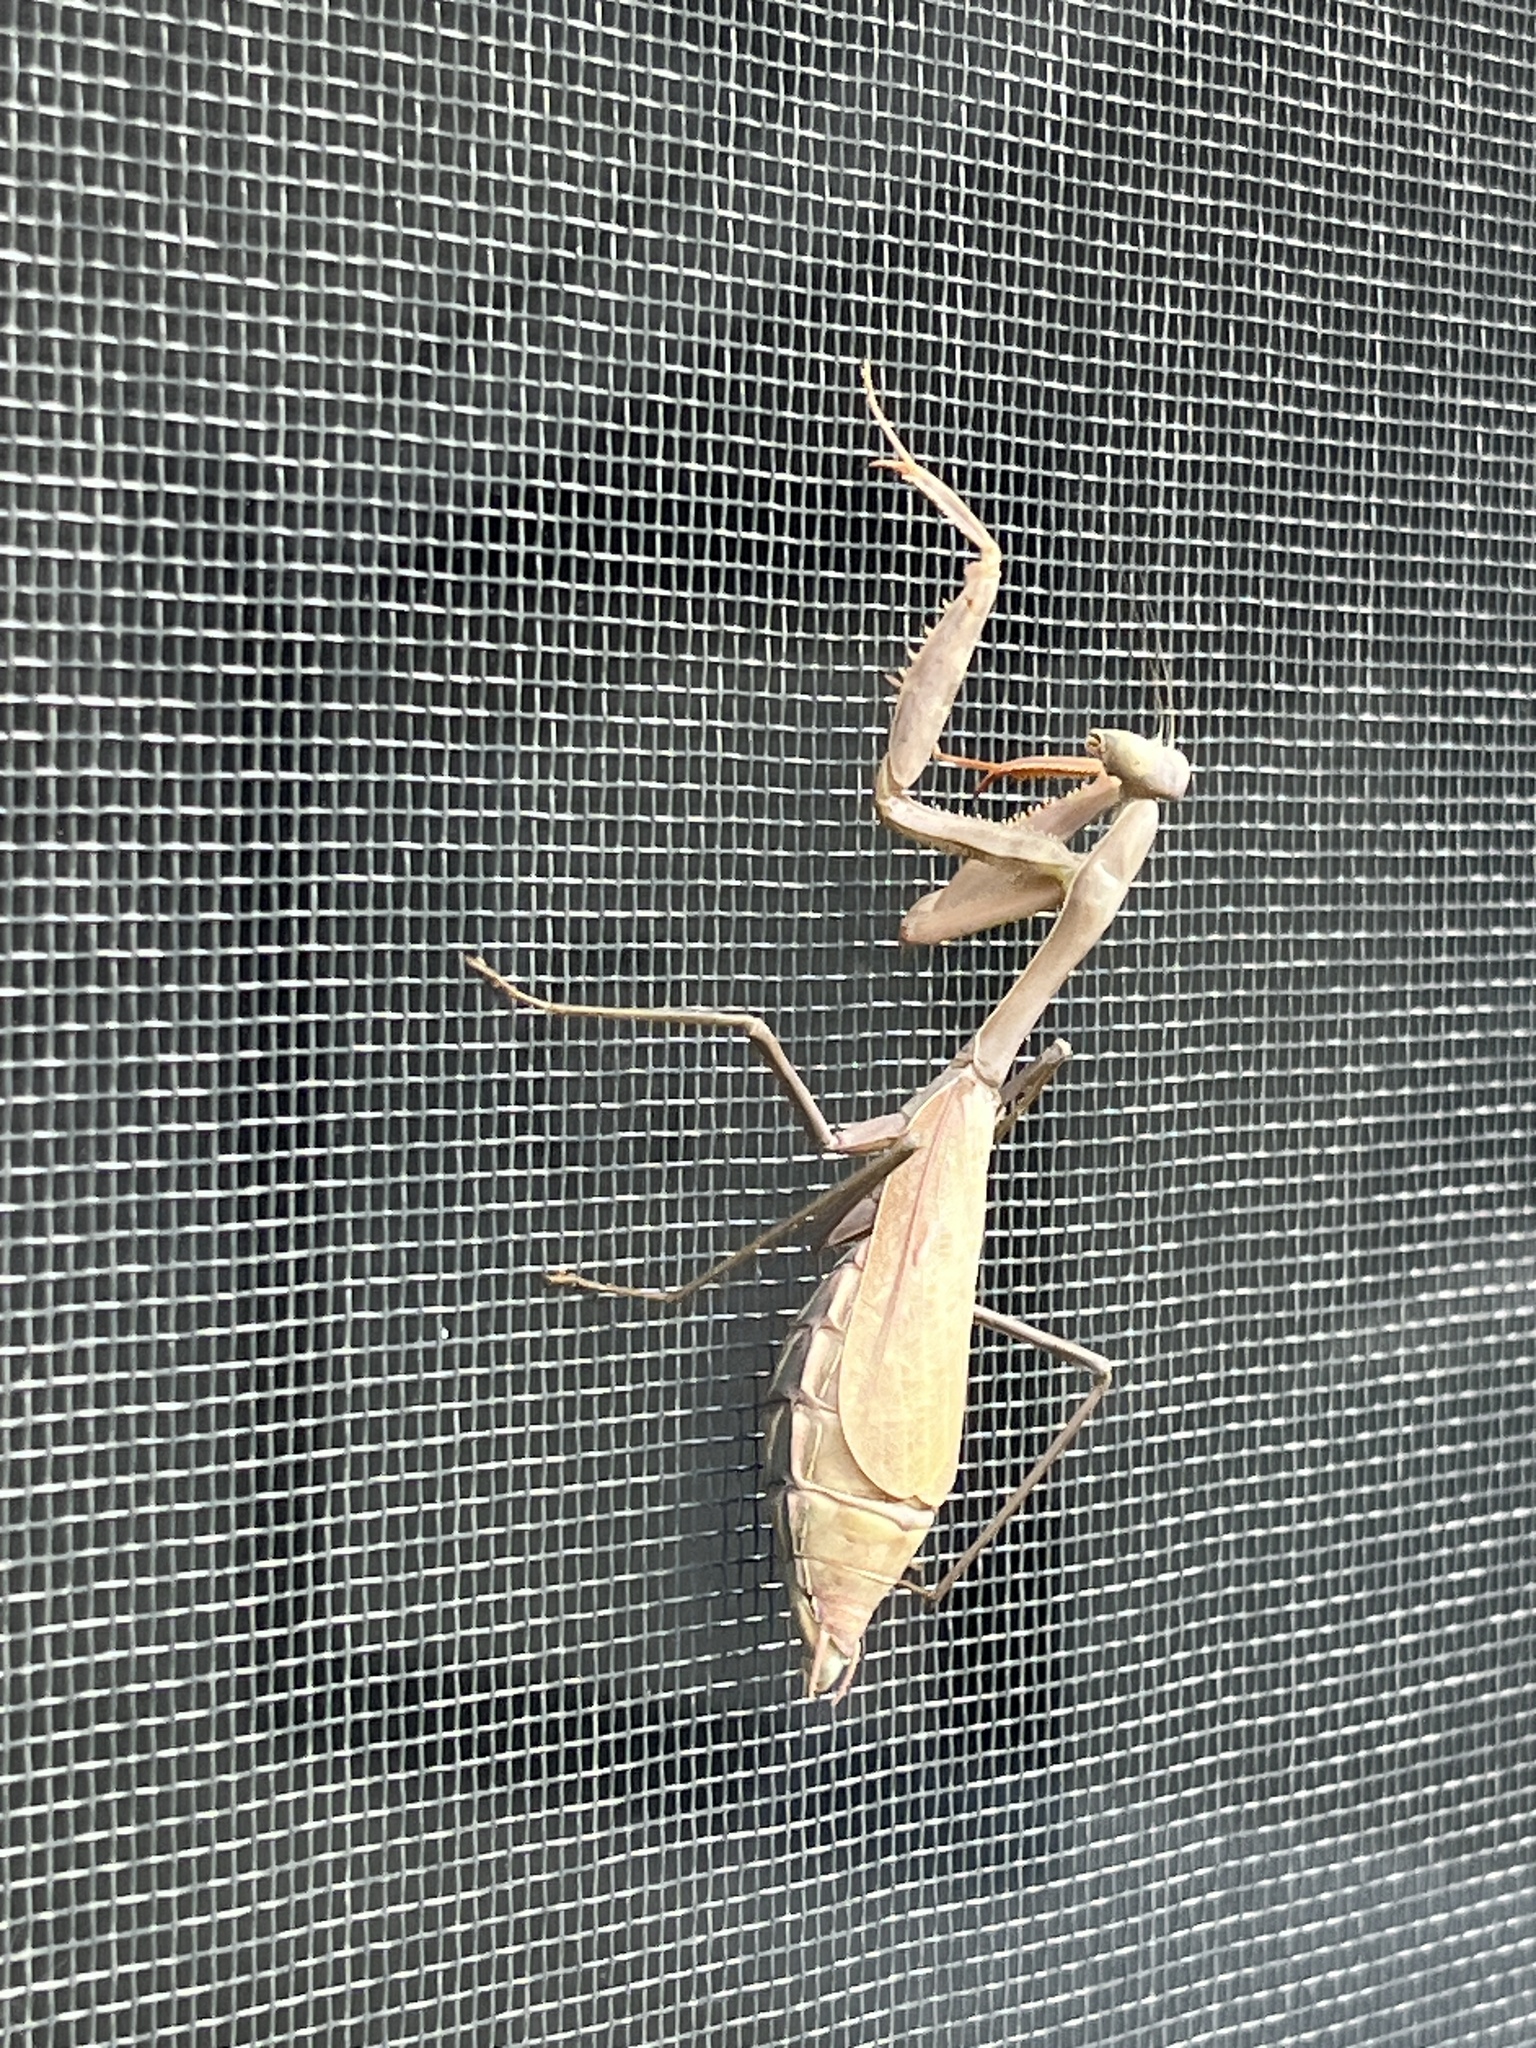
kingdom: Animalia
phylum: Arthropoda
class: Insecta
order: Mantodea
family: Mantidae
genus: Stagmomantis
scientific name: Stagmomantis limbata
